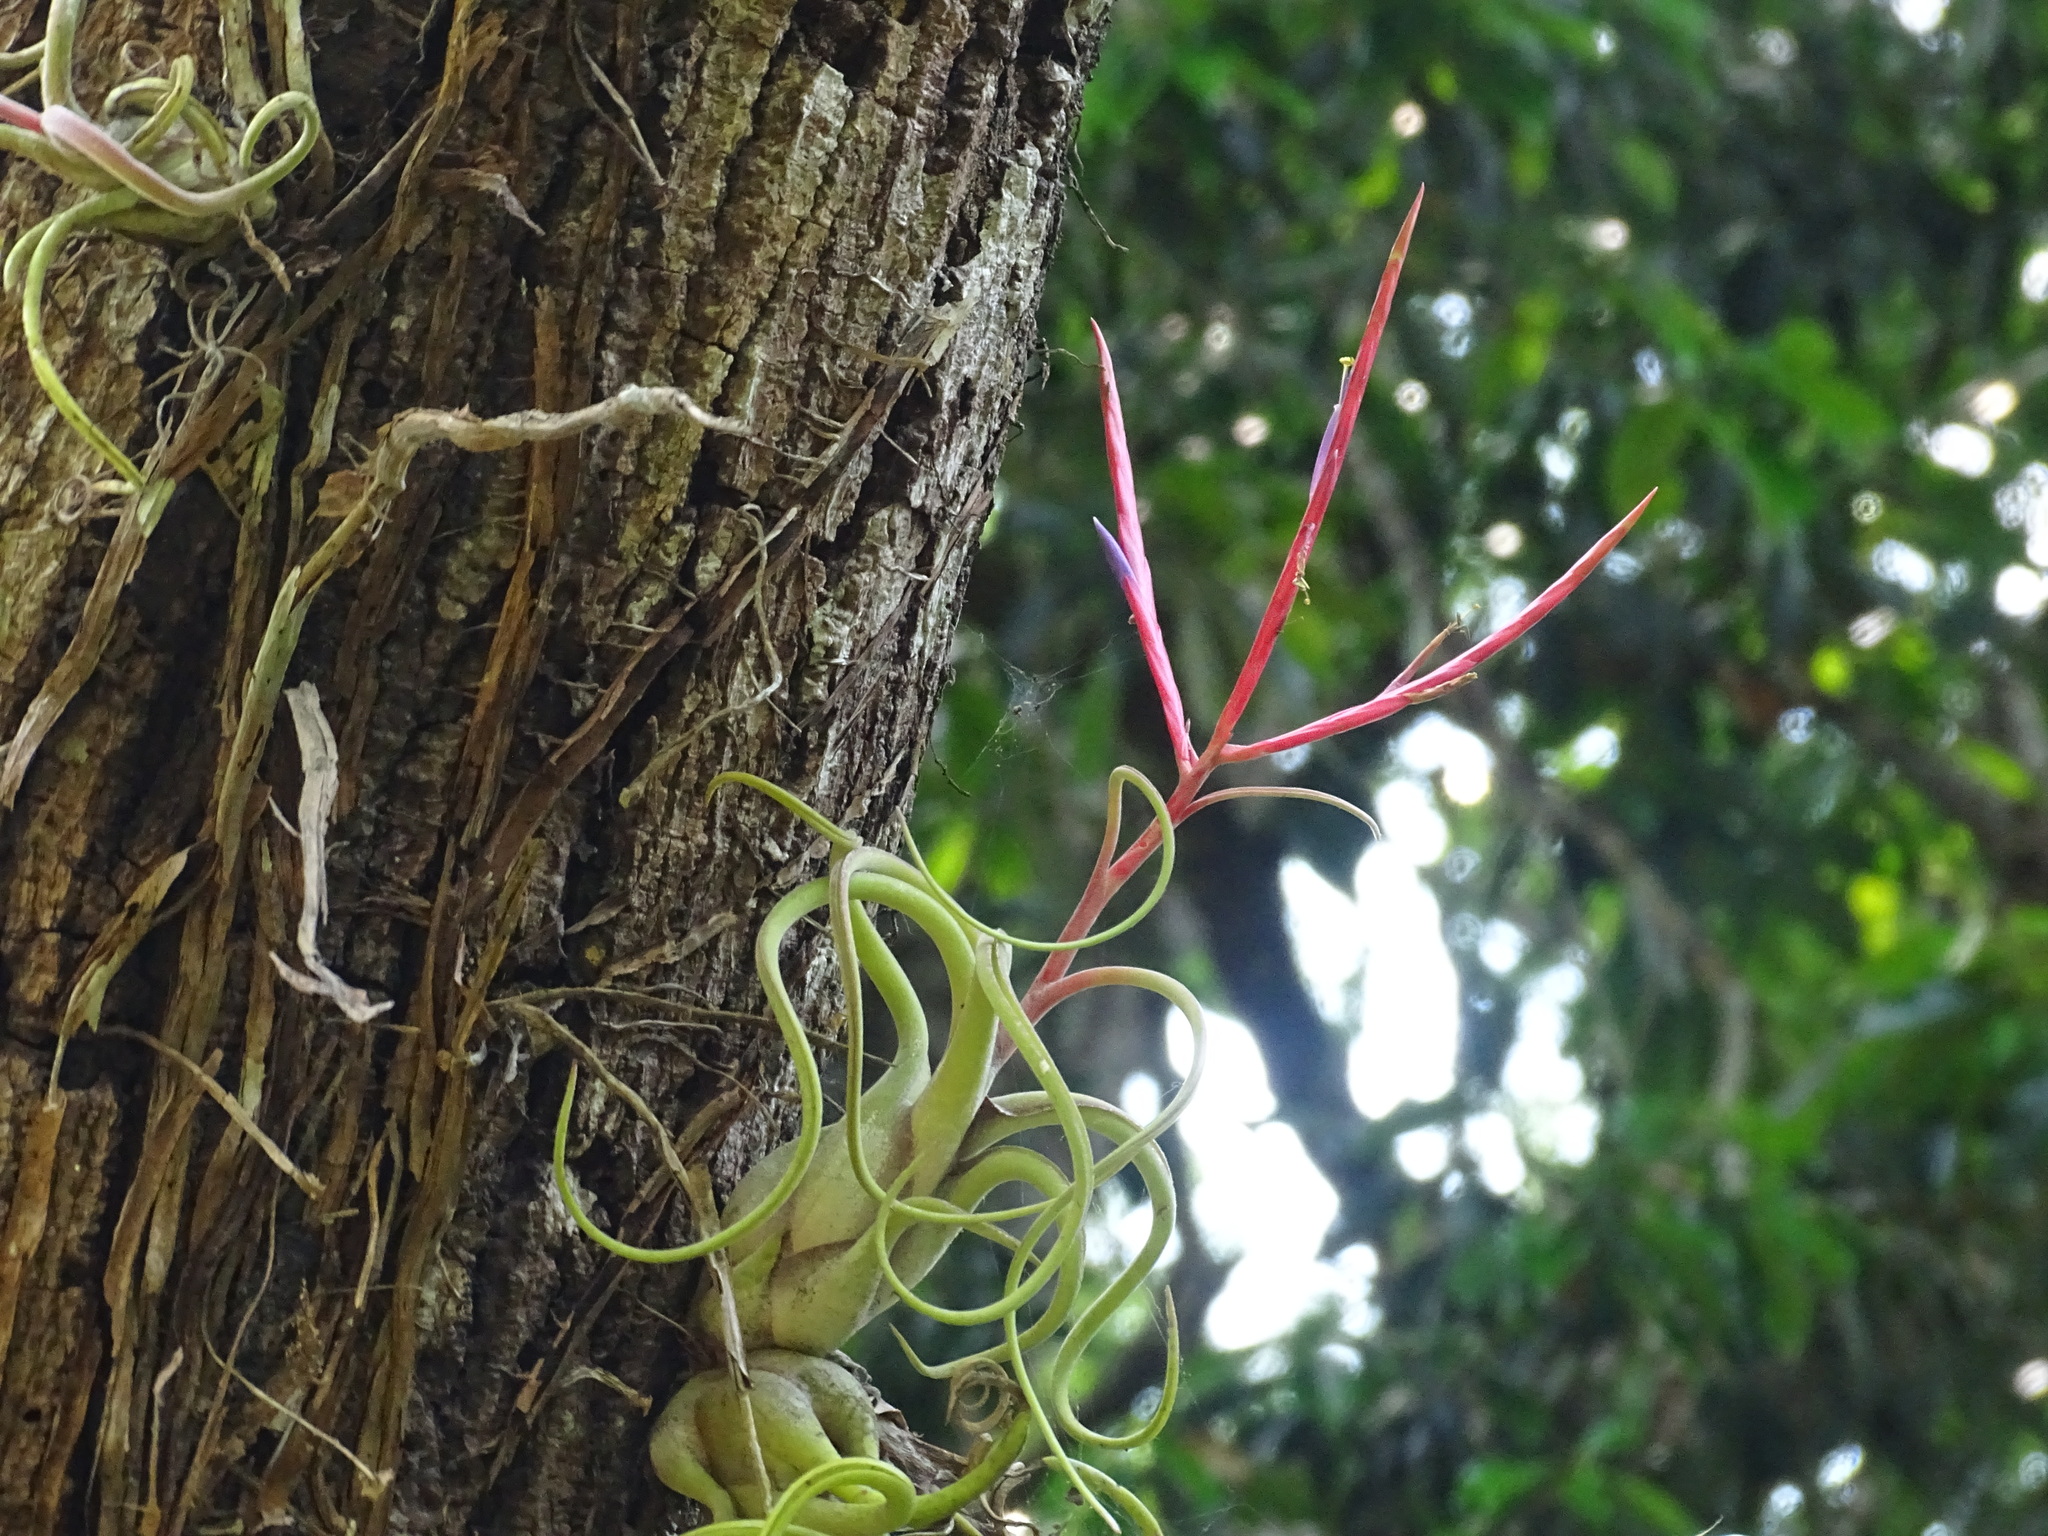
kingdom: Plantae
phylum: Tracheophyta
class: Liliopsida
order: Poales
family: Bromeliaceae
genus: Tillandsia
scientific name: Tillandsia caput-medusae
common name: Octopus plant
